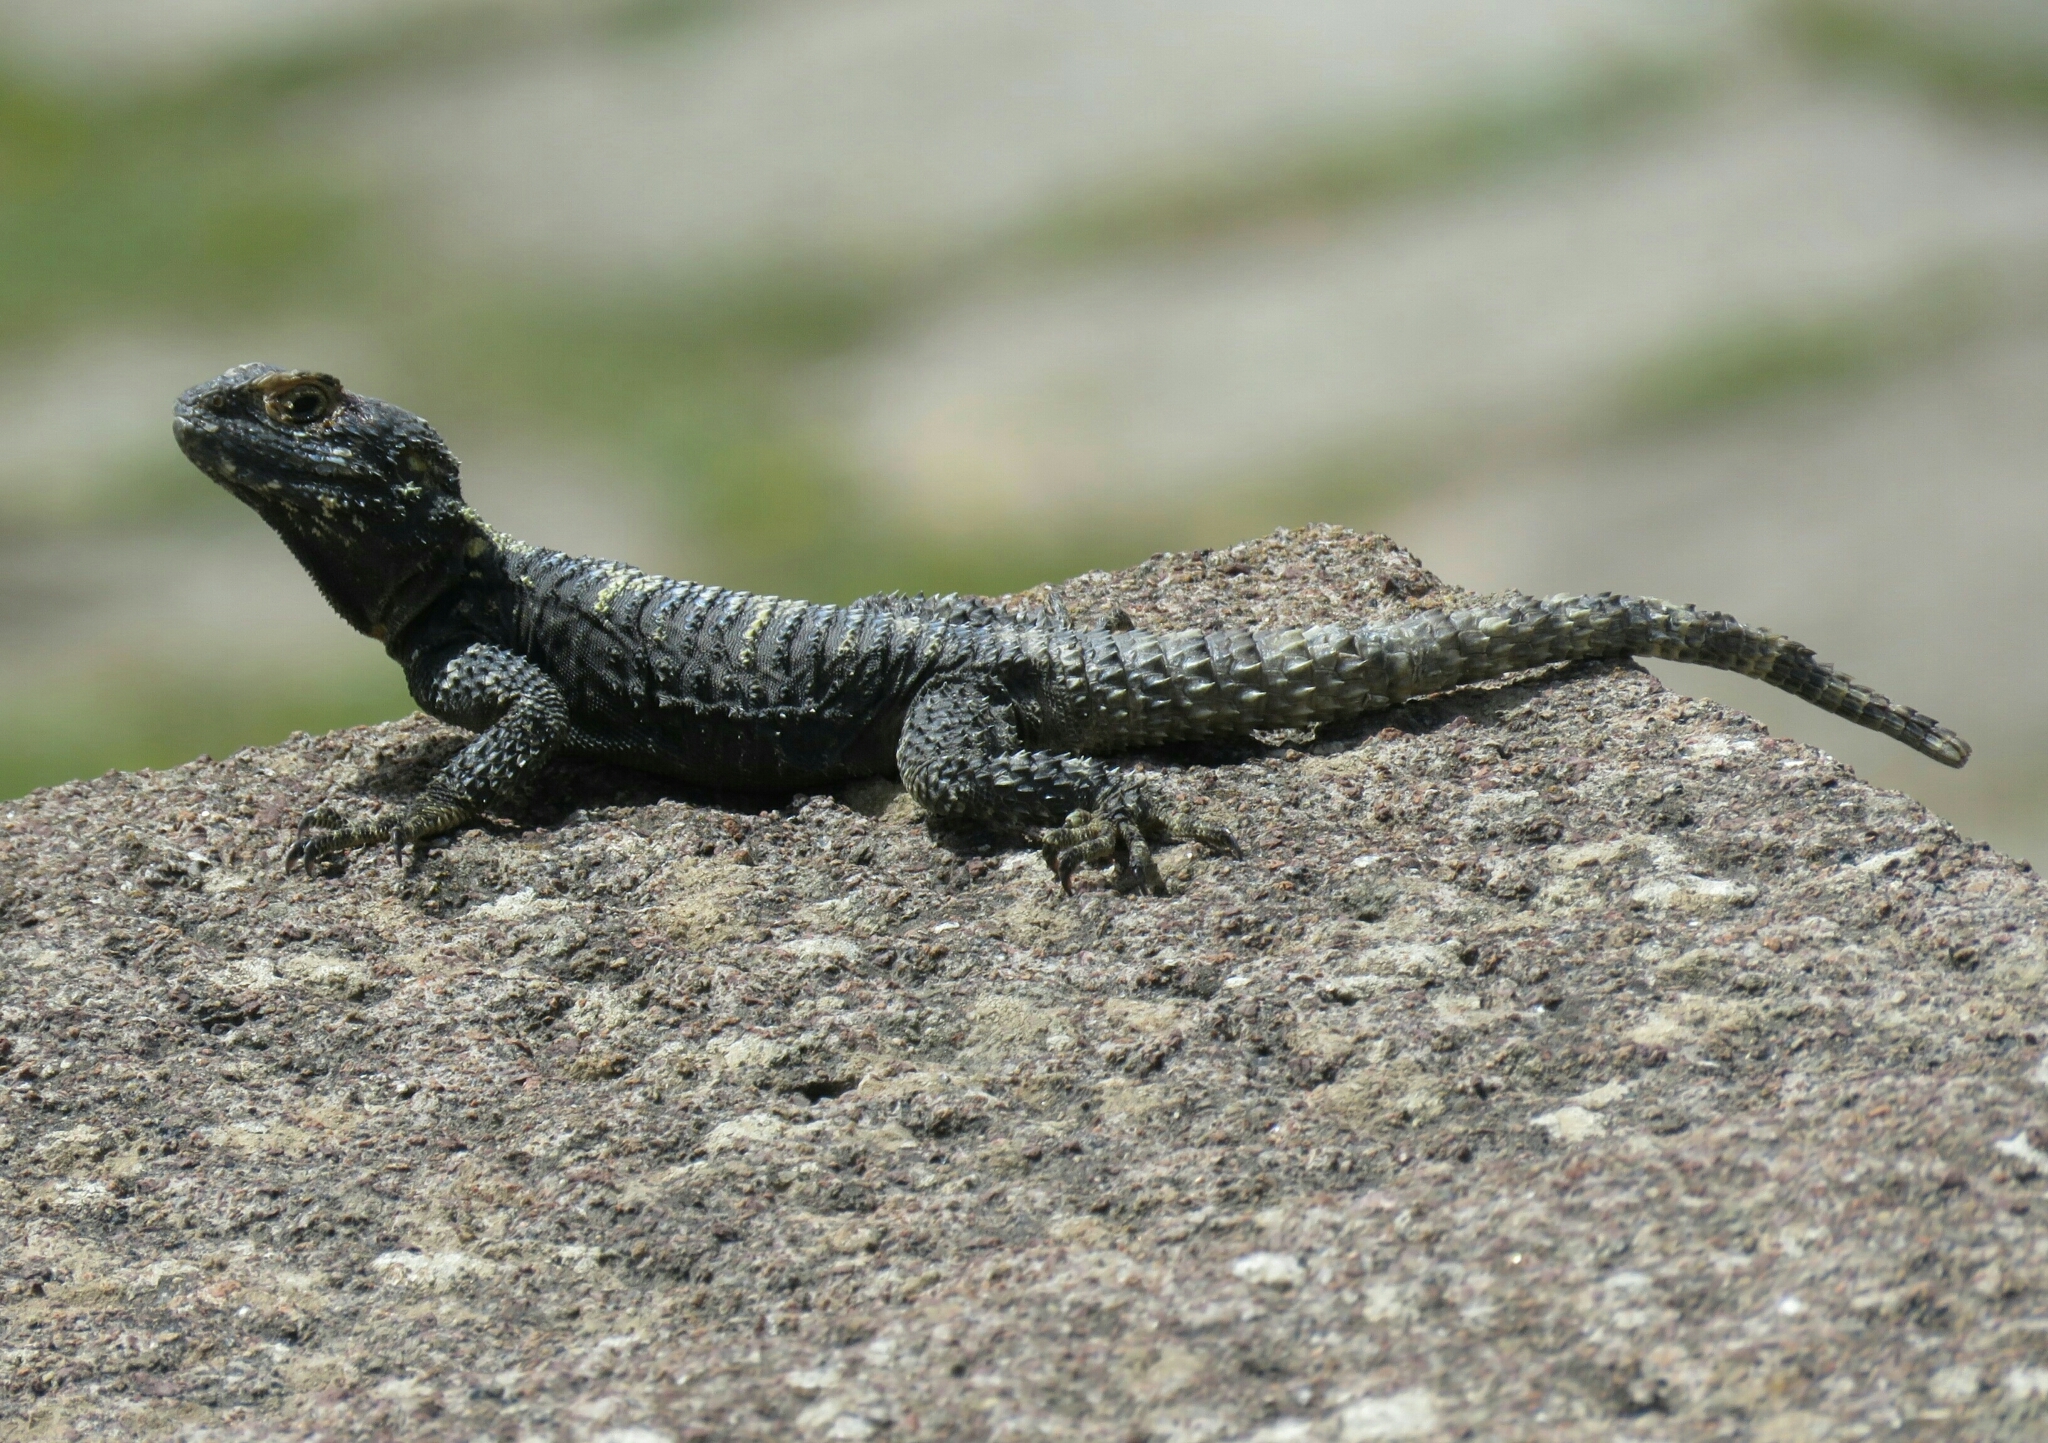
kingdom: Animalia
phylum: Chordata
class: Squamata
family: Agamidae
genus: Stellagama
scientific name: Stellagama stellio
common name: Starred agama
